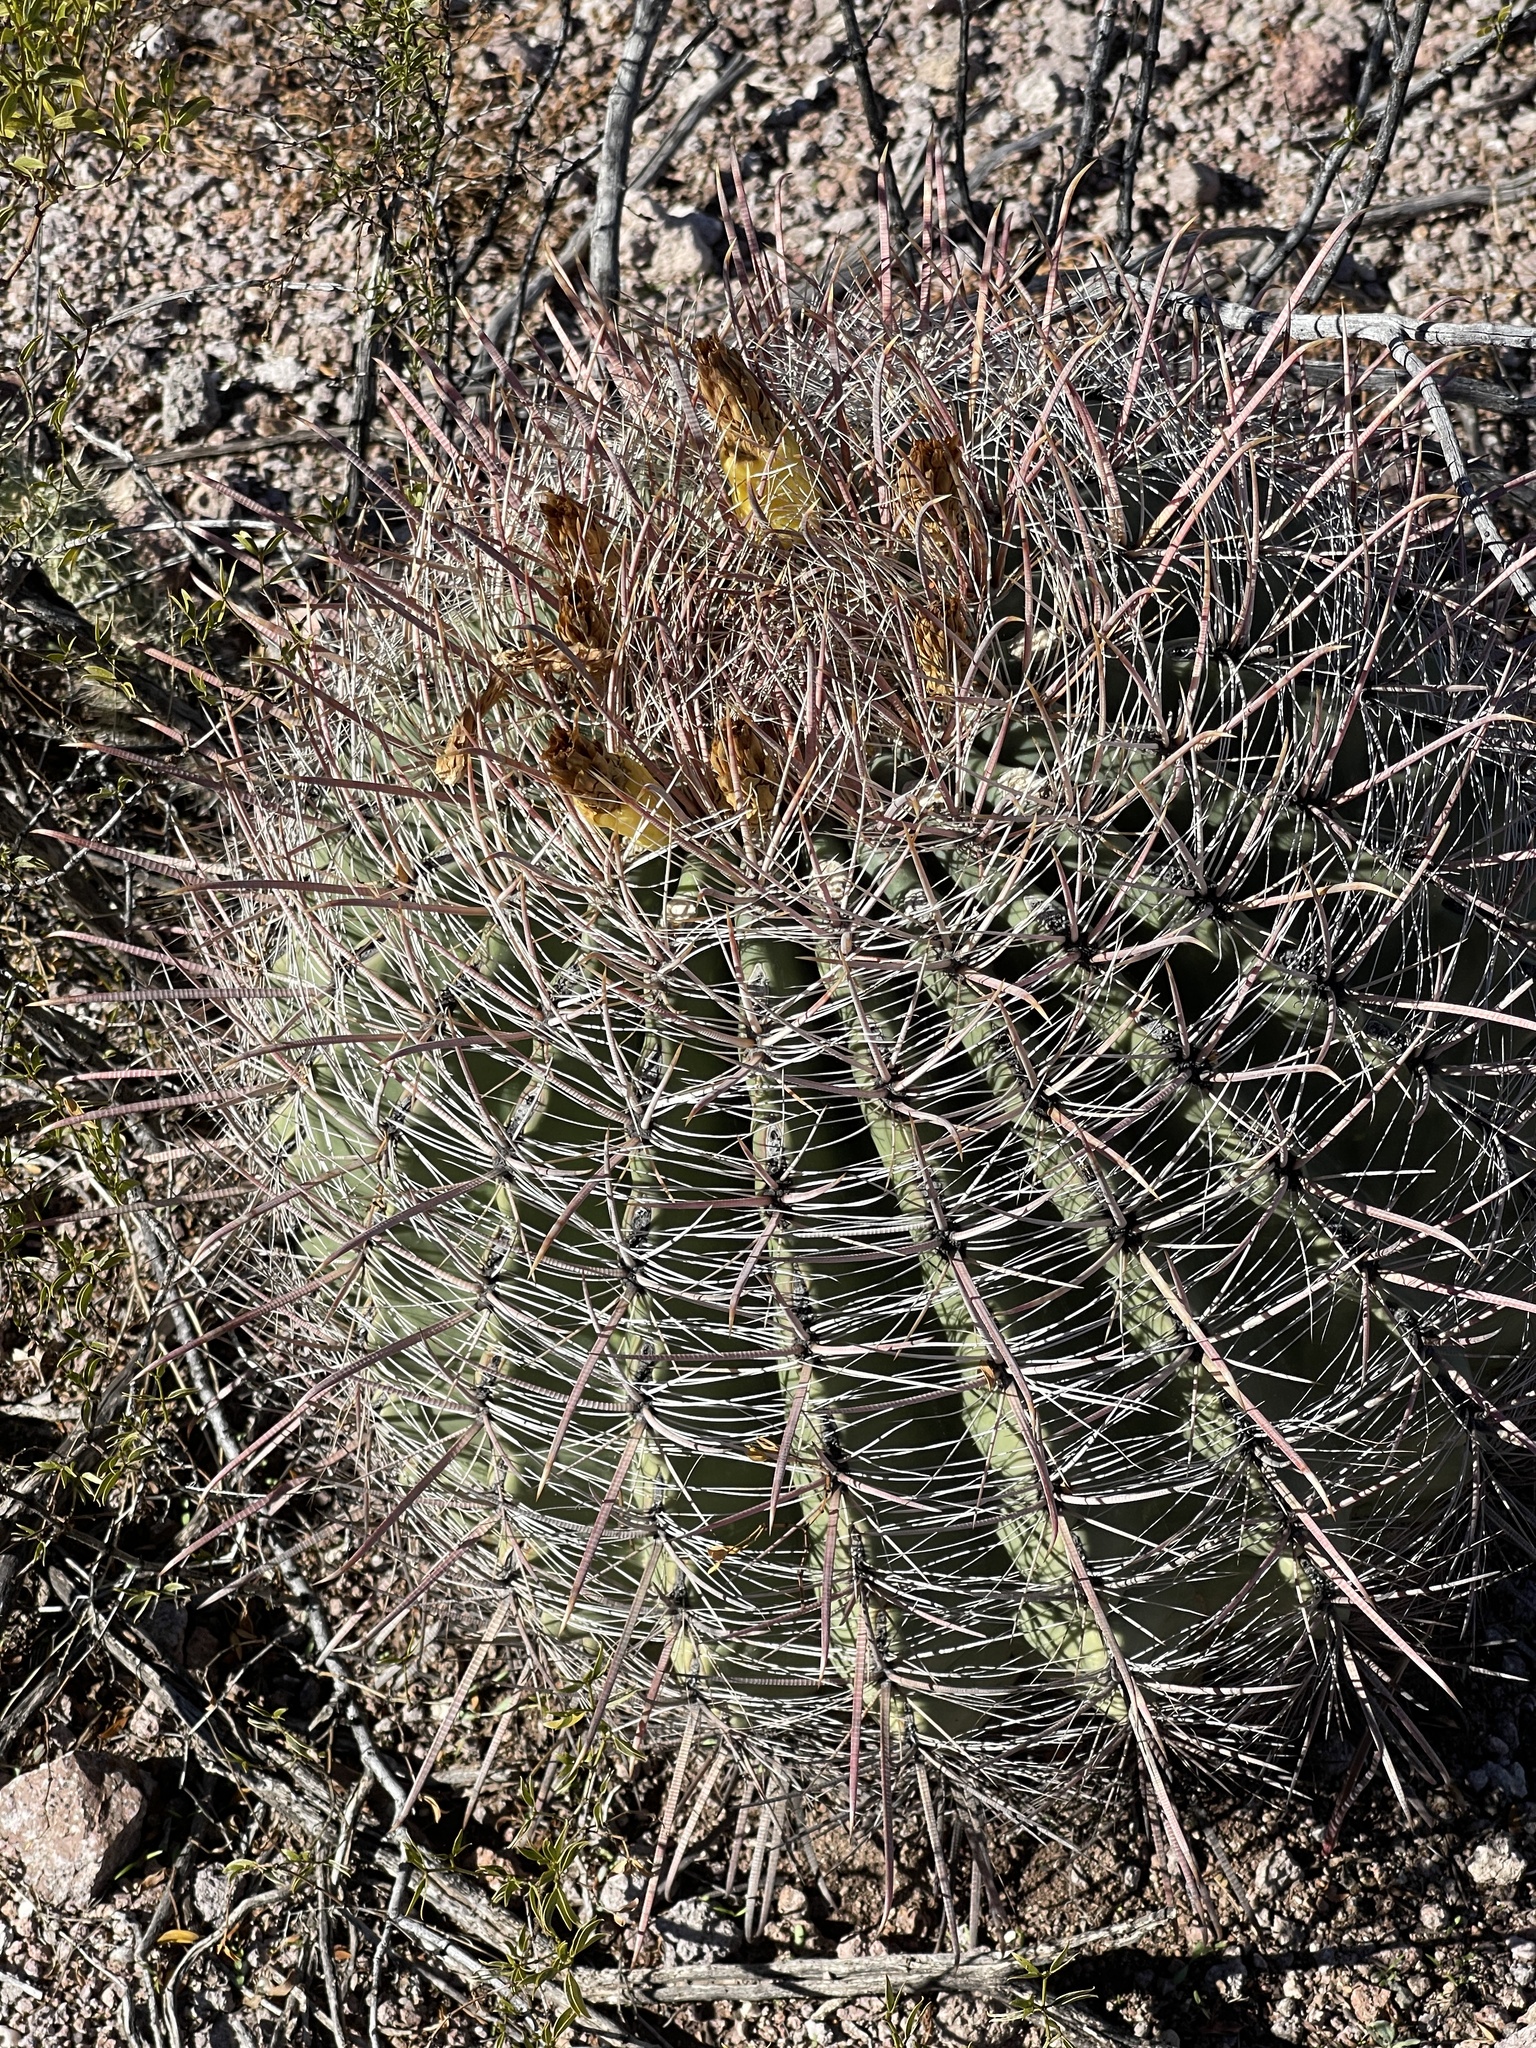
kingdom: Plantae
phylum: Tracheophyta
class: Magnoliopsida
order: Caryophyllales
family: Cactaceae
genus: Ferocactus
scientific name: Ferocactus wislizeni
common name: Candy barrel cactus
